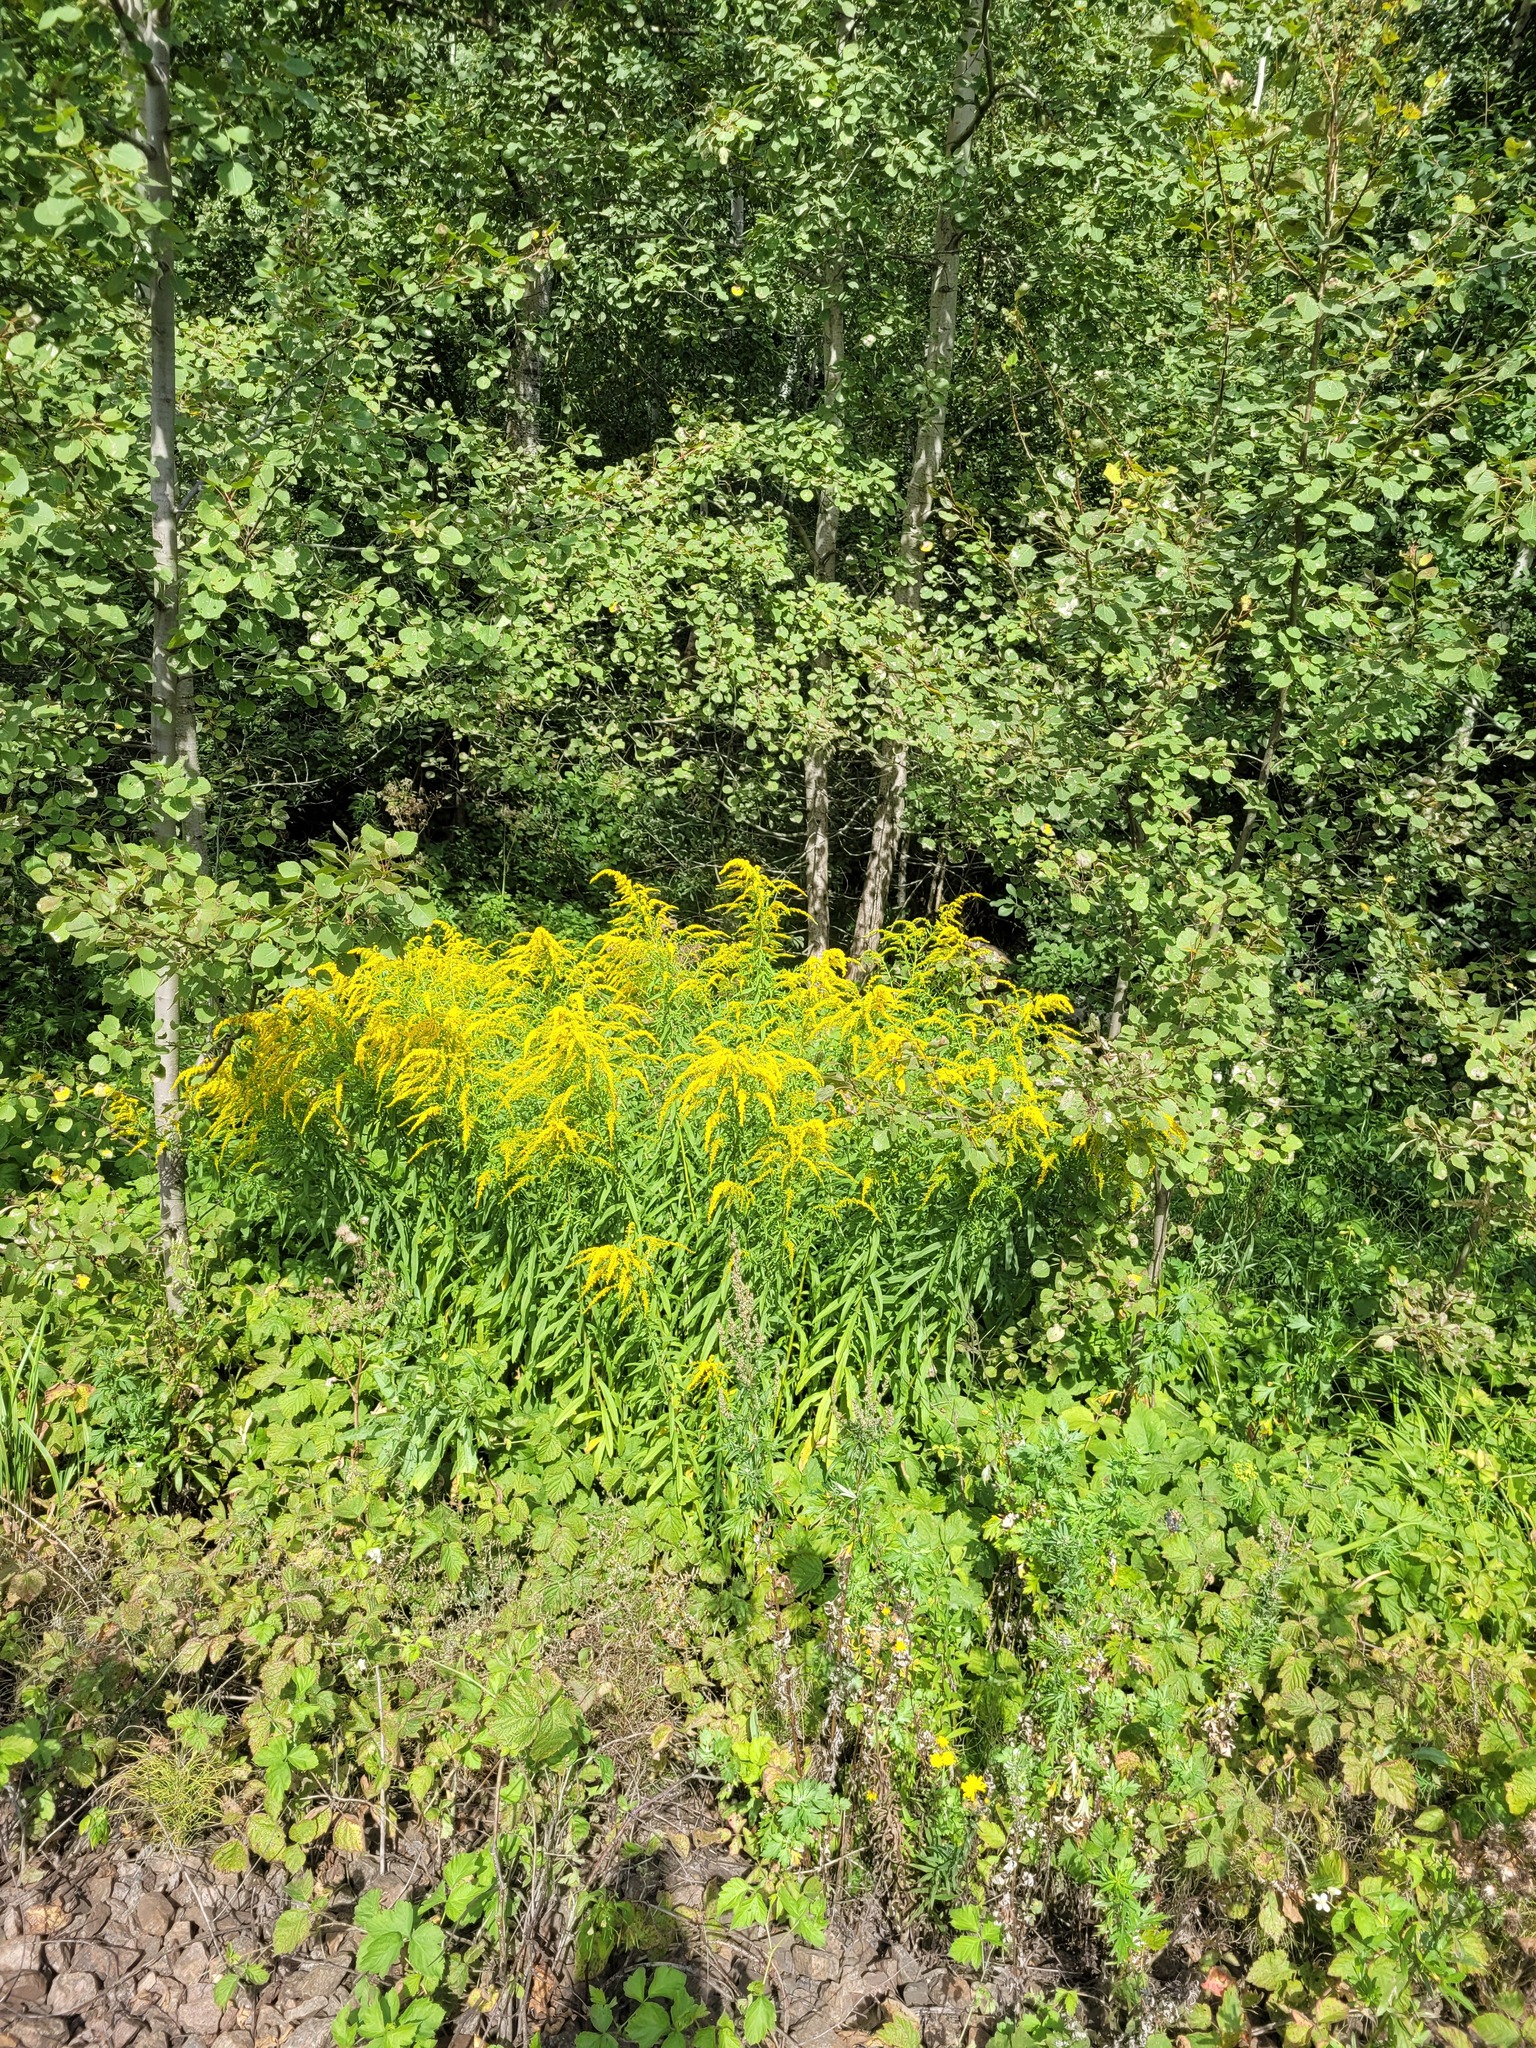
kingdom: Plantae
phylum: Tracheophyta
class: Magnoliopsida
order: Asterales
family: Asteraceae
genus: Solidago
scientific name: Solidago canadensis
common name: Canada goldenrod
